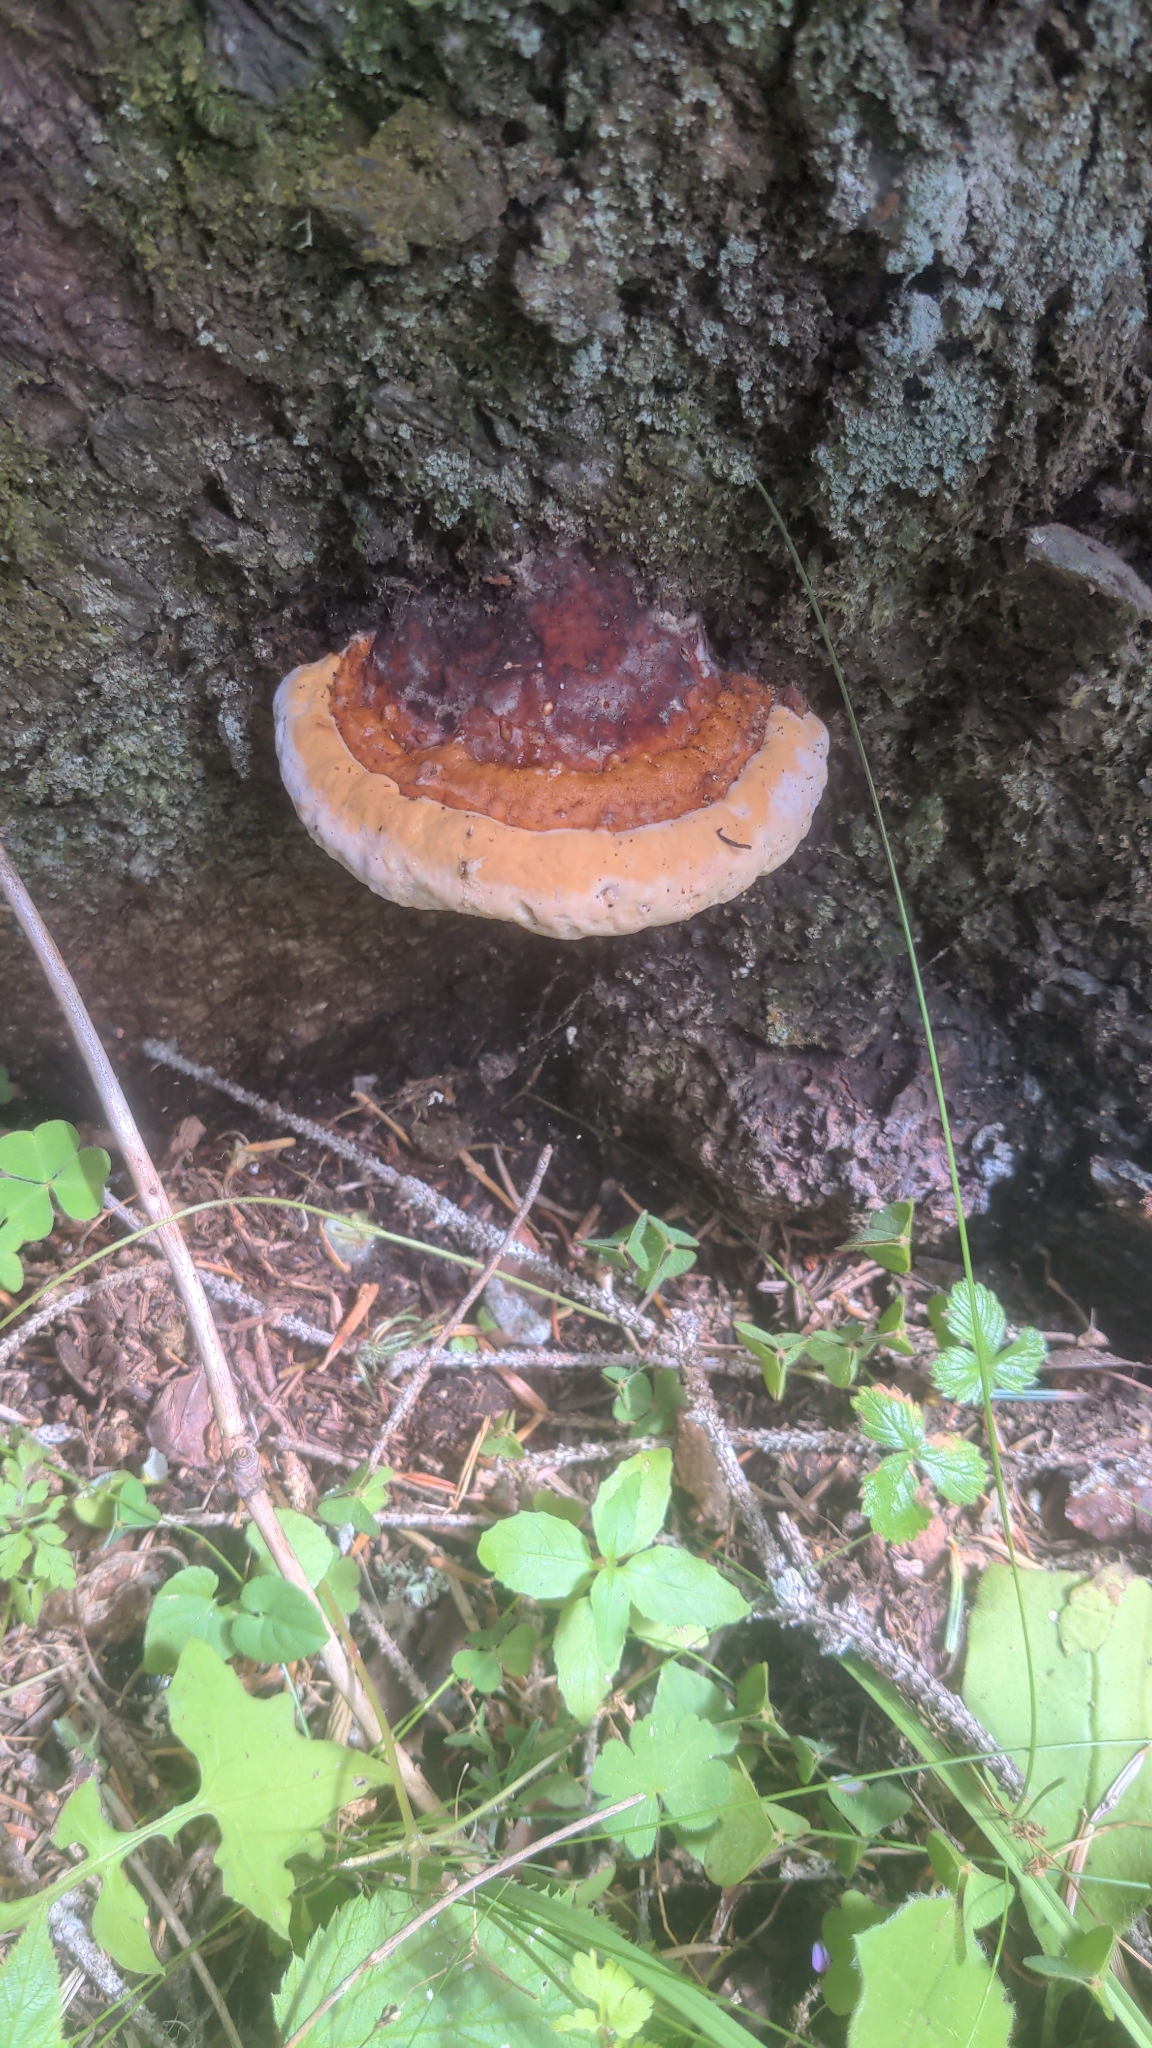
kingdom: Fungi
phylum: Basidiomycota
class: Agaricomycetes
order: Polyporales
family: Fomitopsidaceae
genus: Fomitopsis
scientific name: Fomitopsis pinicola
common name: Red-belted bracket
